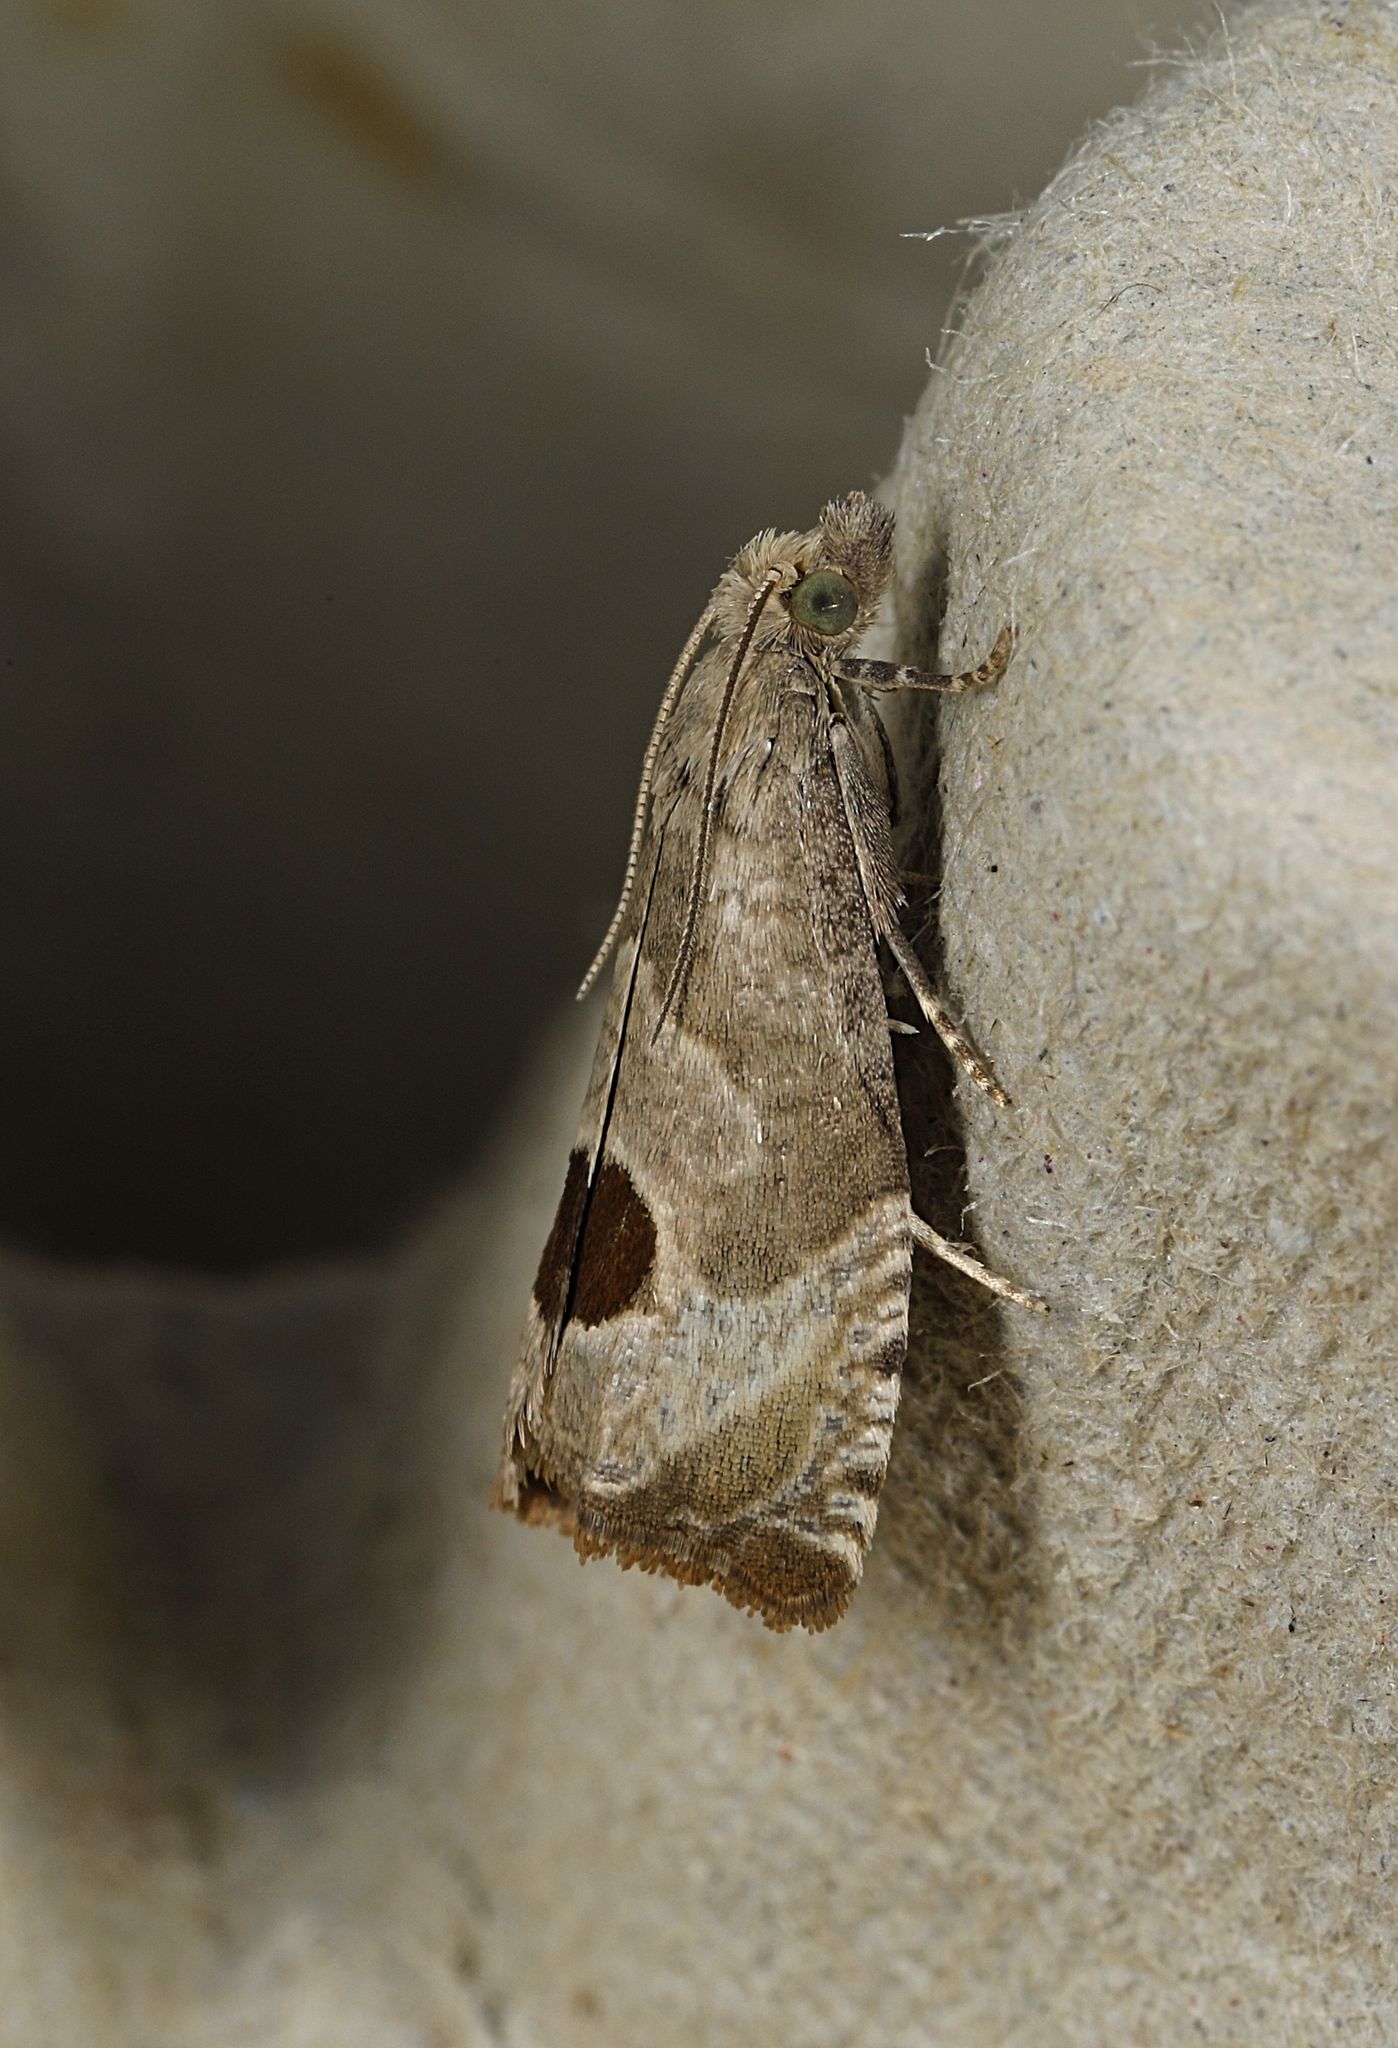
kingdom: Animalia
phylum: Arthropoda
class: Insecta
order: Lepidoptera
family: Tortricidae
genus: Notocelia
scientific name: Notocelia uddmanniana
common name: Bramble shoot moth
